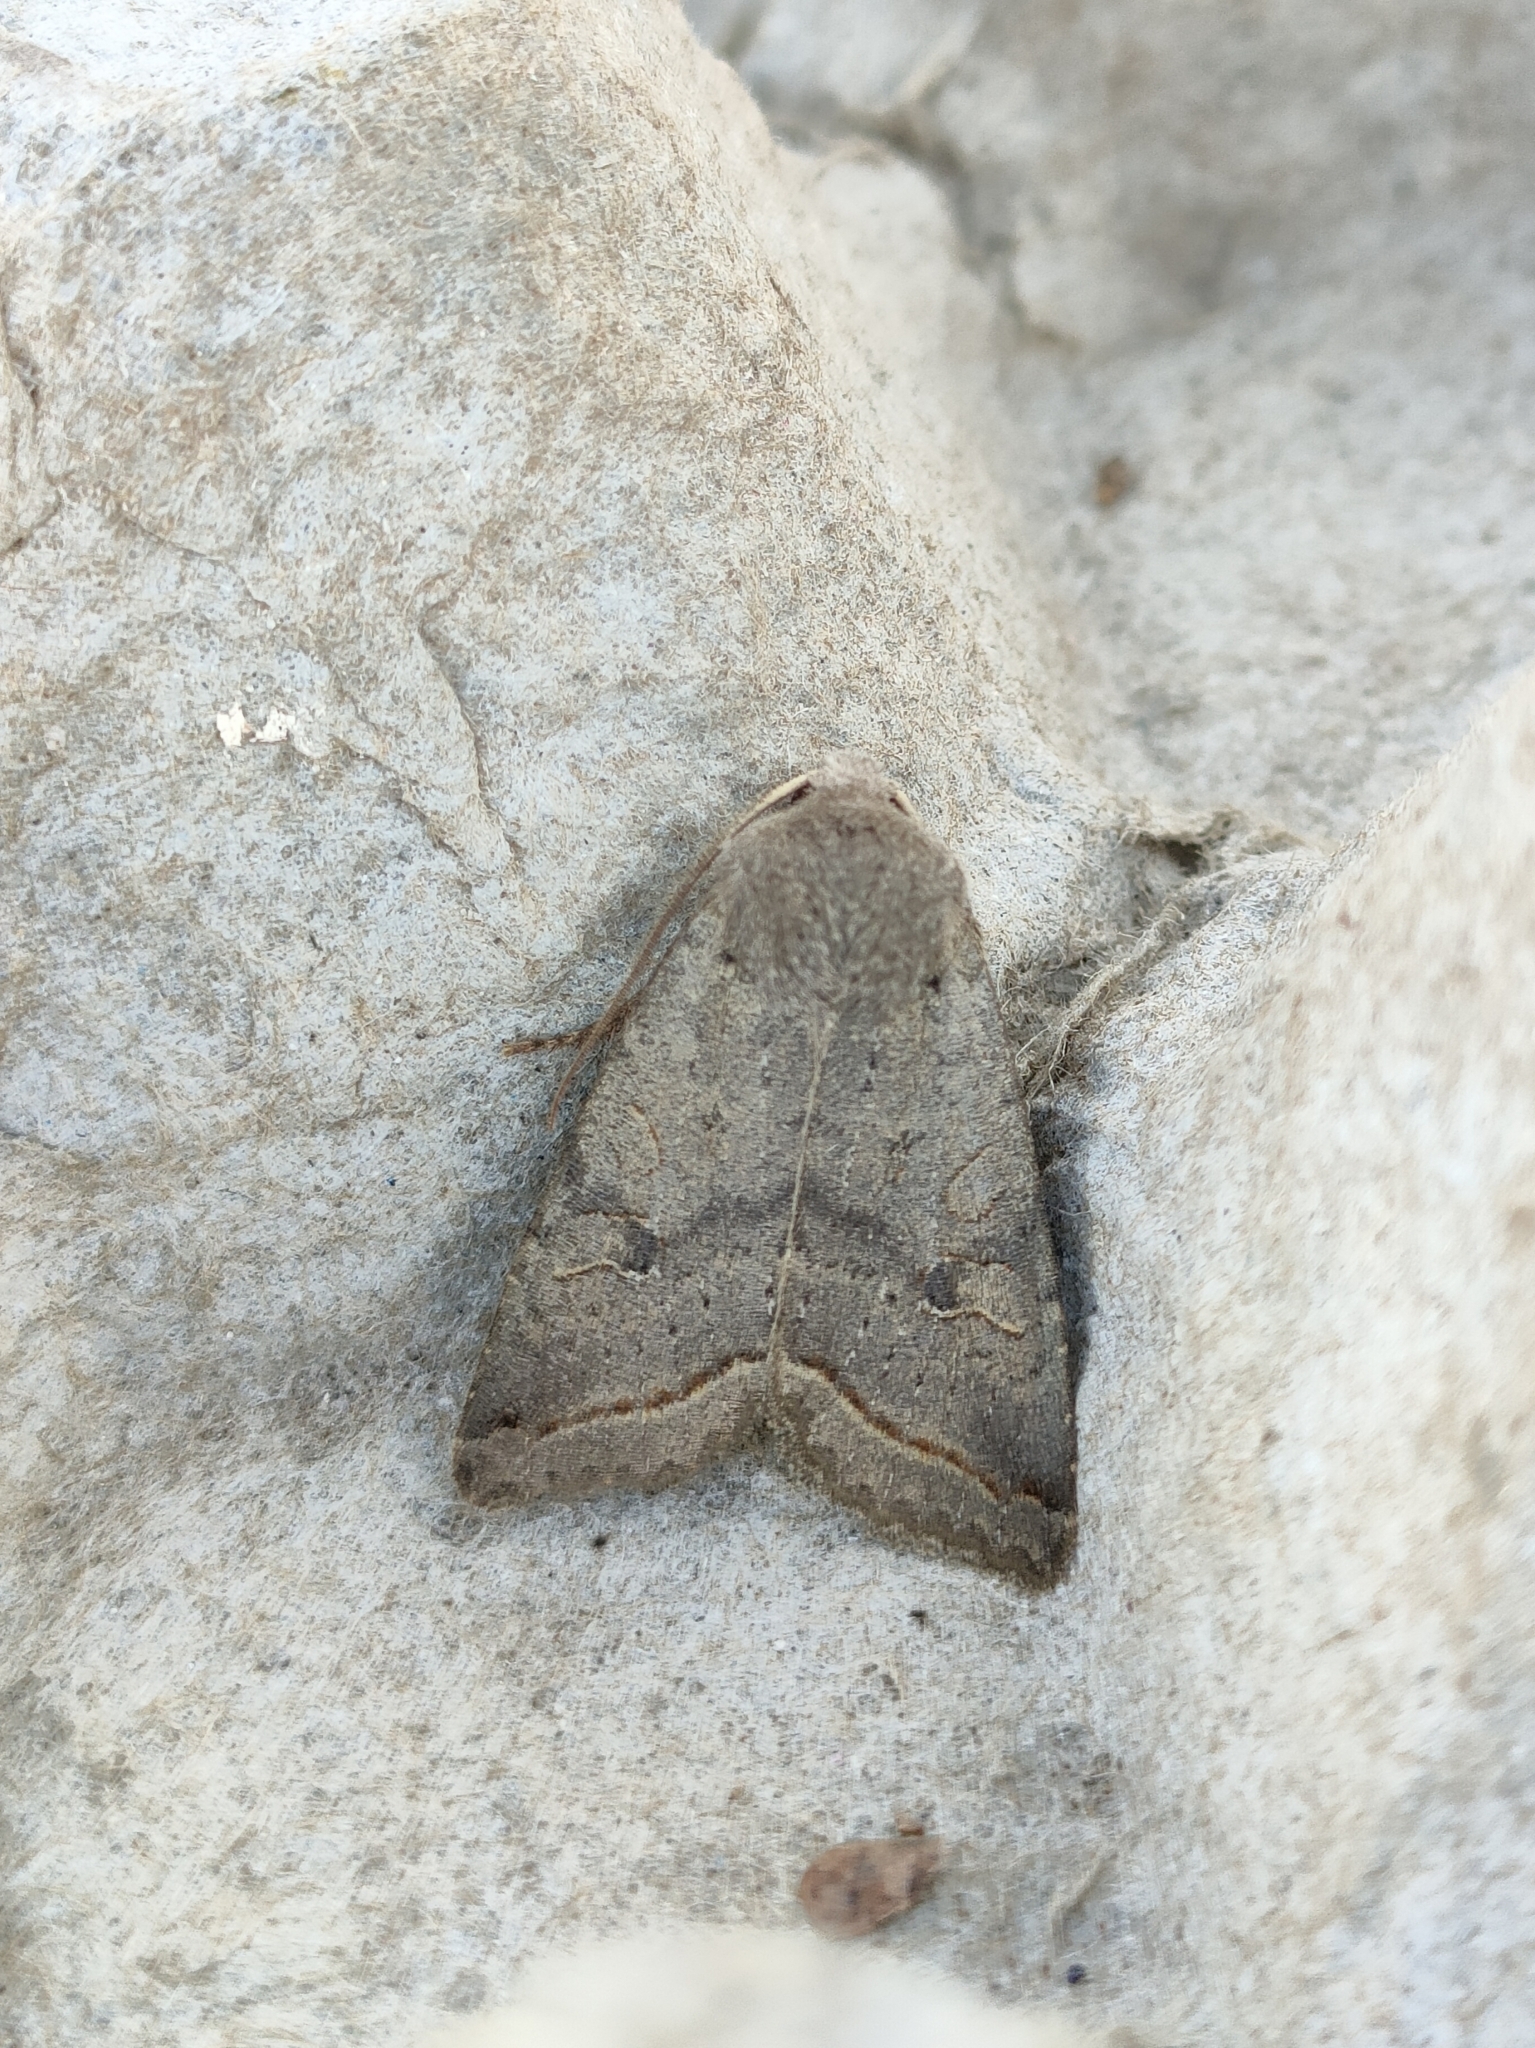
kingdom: Animalia
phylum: Arthropoda
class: Insecta
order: Lepidoptera
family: Noctuidae
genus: Agrochola
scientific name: Agrochola lota
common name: Red-line quaker
